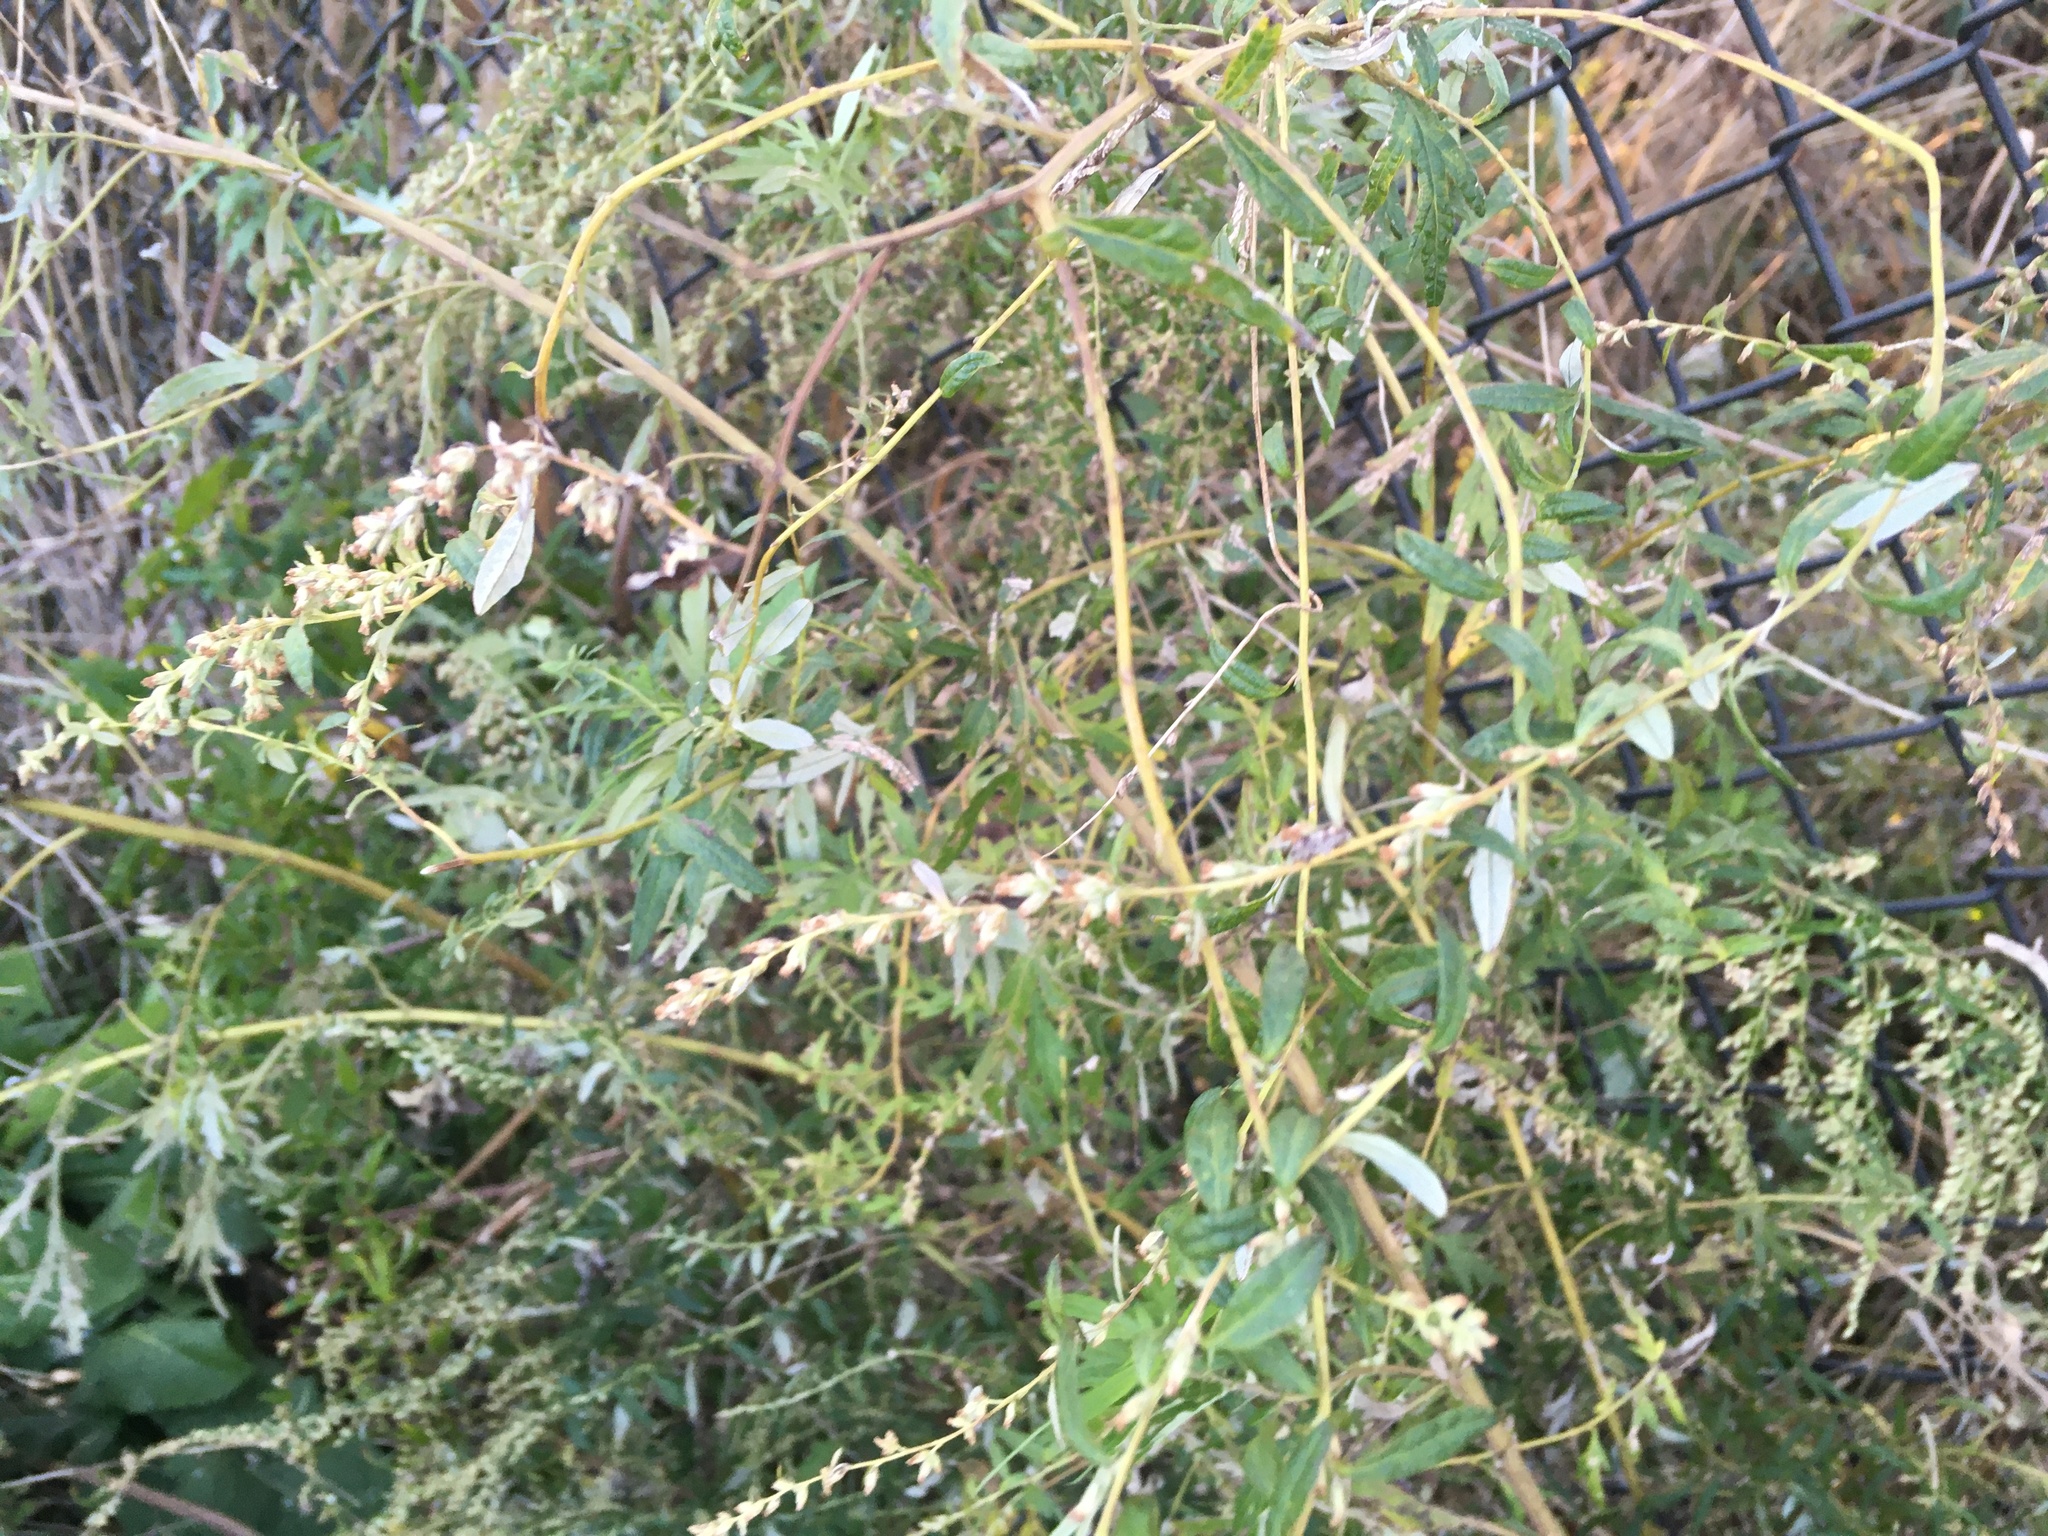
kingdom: Plantae
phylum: Tracheophyta
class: Magnoliopsida
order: Asterales
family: Asteraceae
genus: Artemisia
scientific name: Artemisia vulgaris
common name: Mugwort
